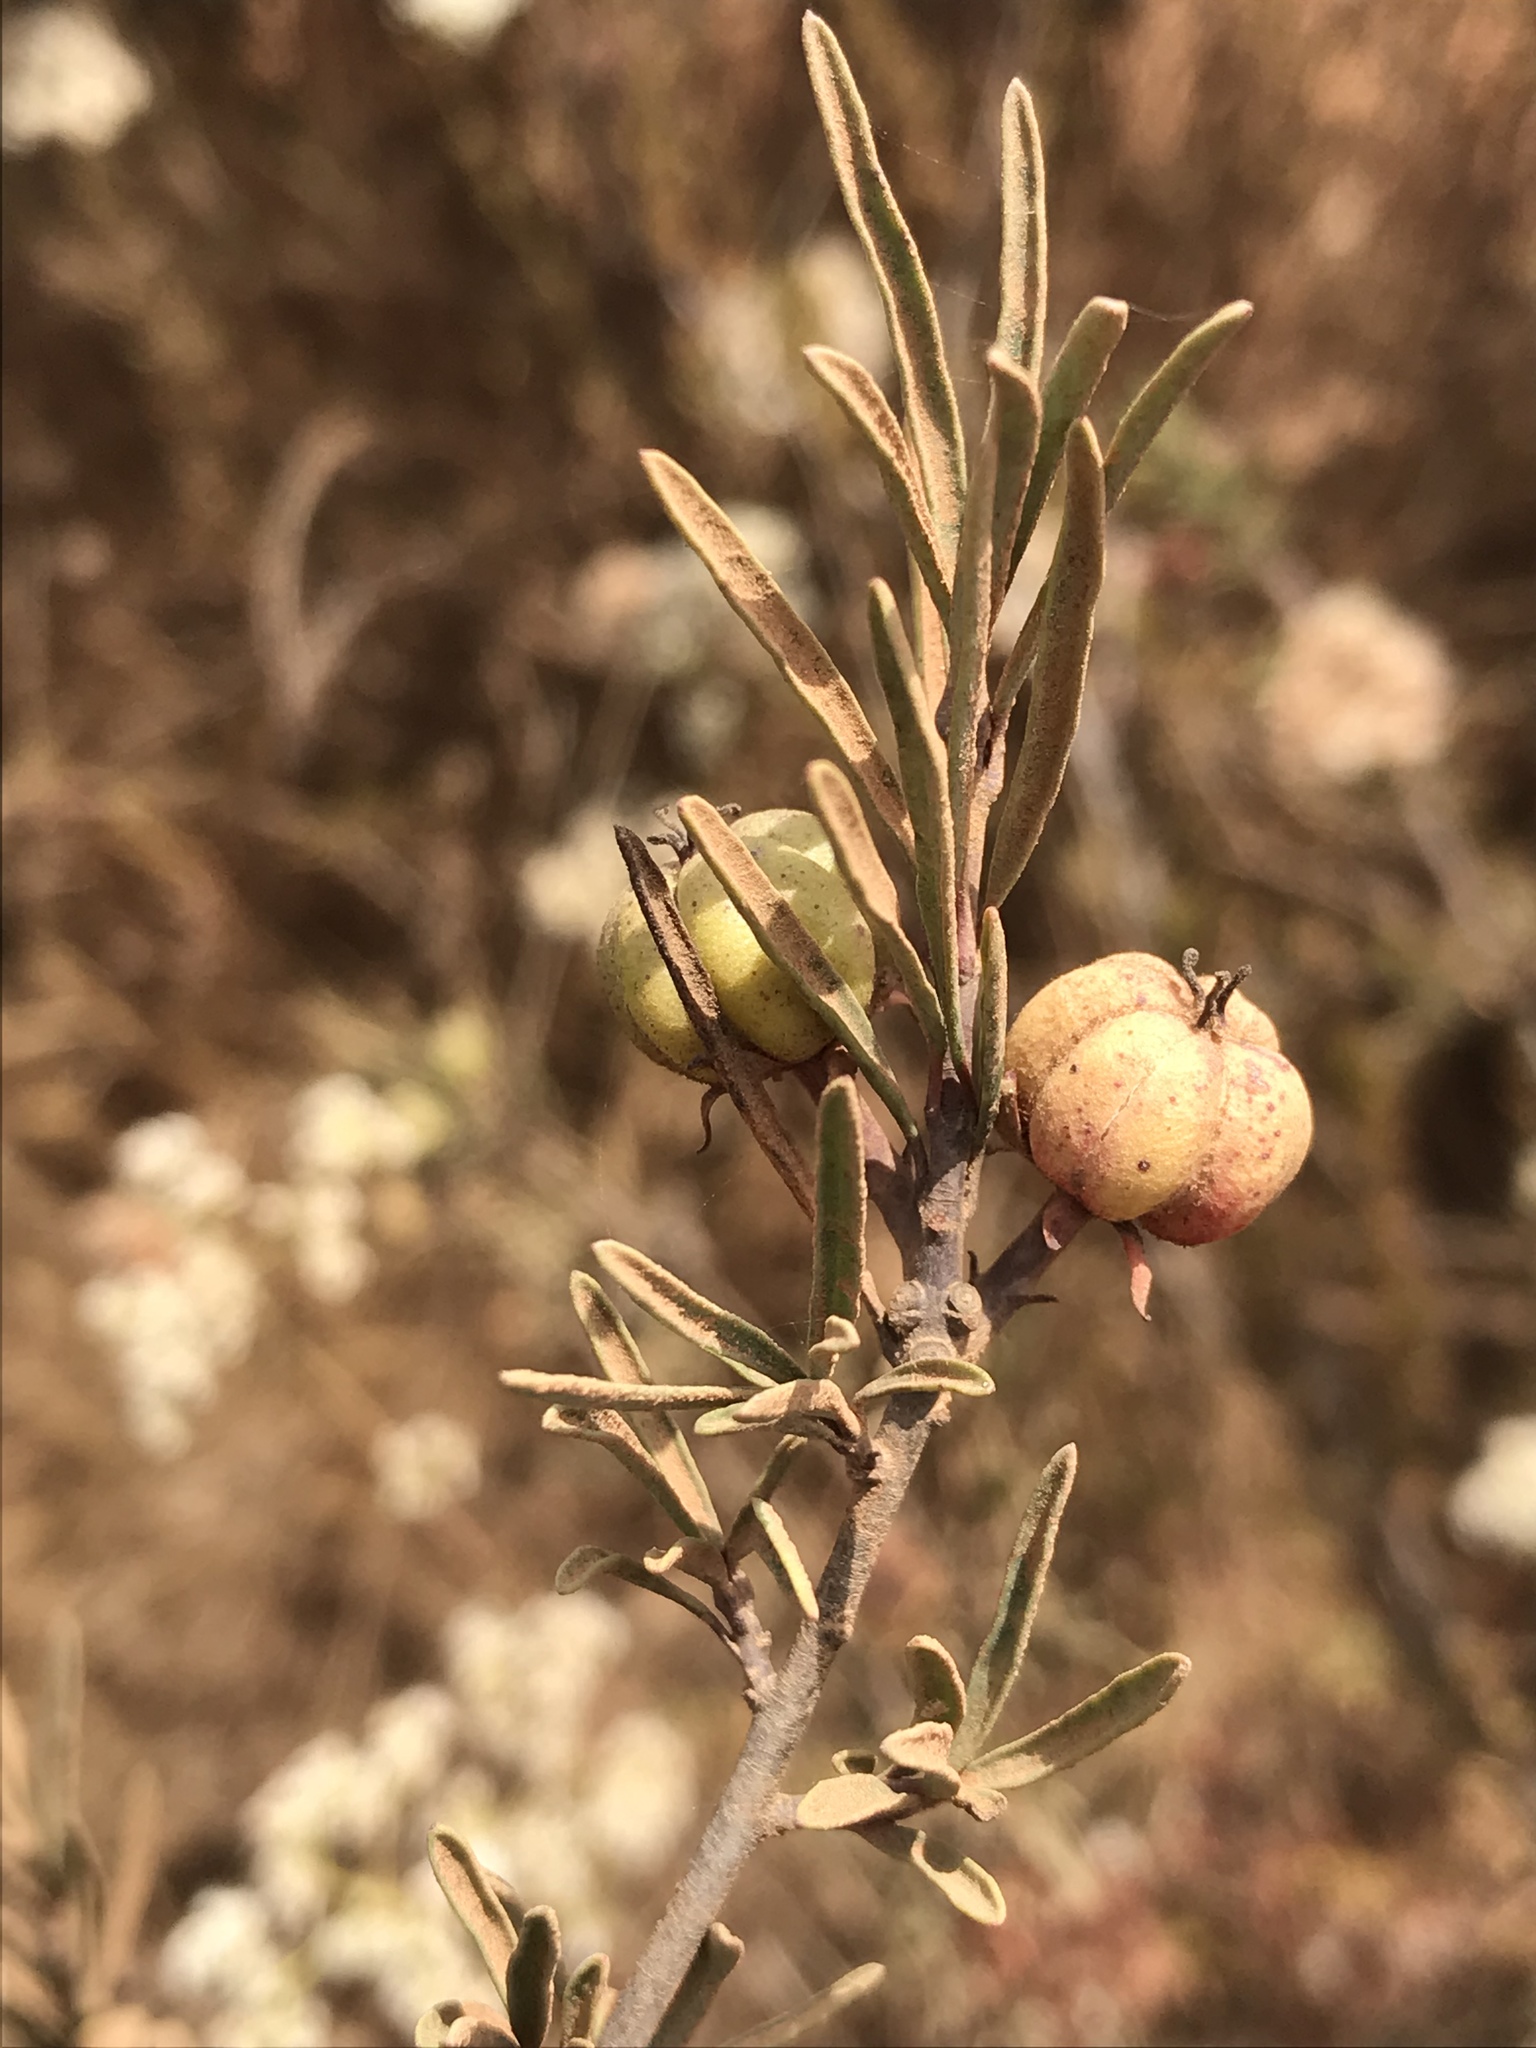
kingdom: Plantae
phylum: Tracheophyta
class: Magnoliopsida
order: Malpighiales
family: Picrodendraceae
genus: Tetracoccus
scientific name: Tetracoccus dioicus
